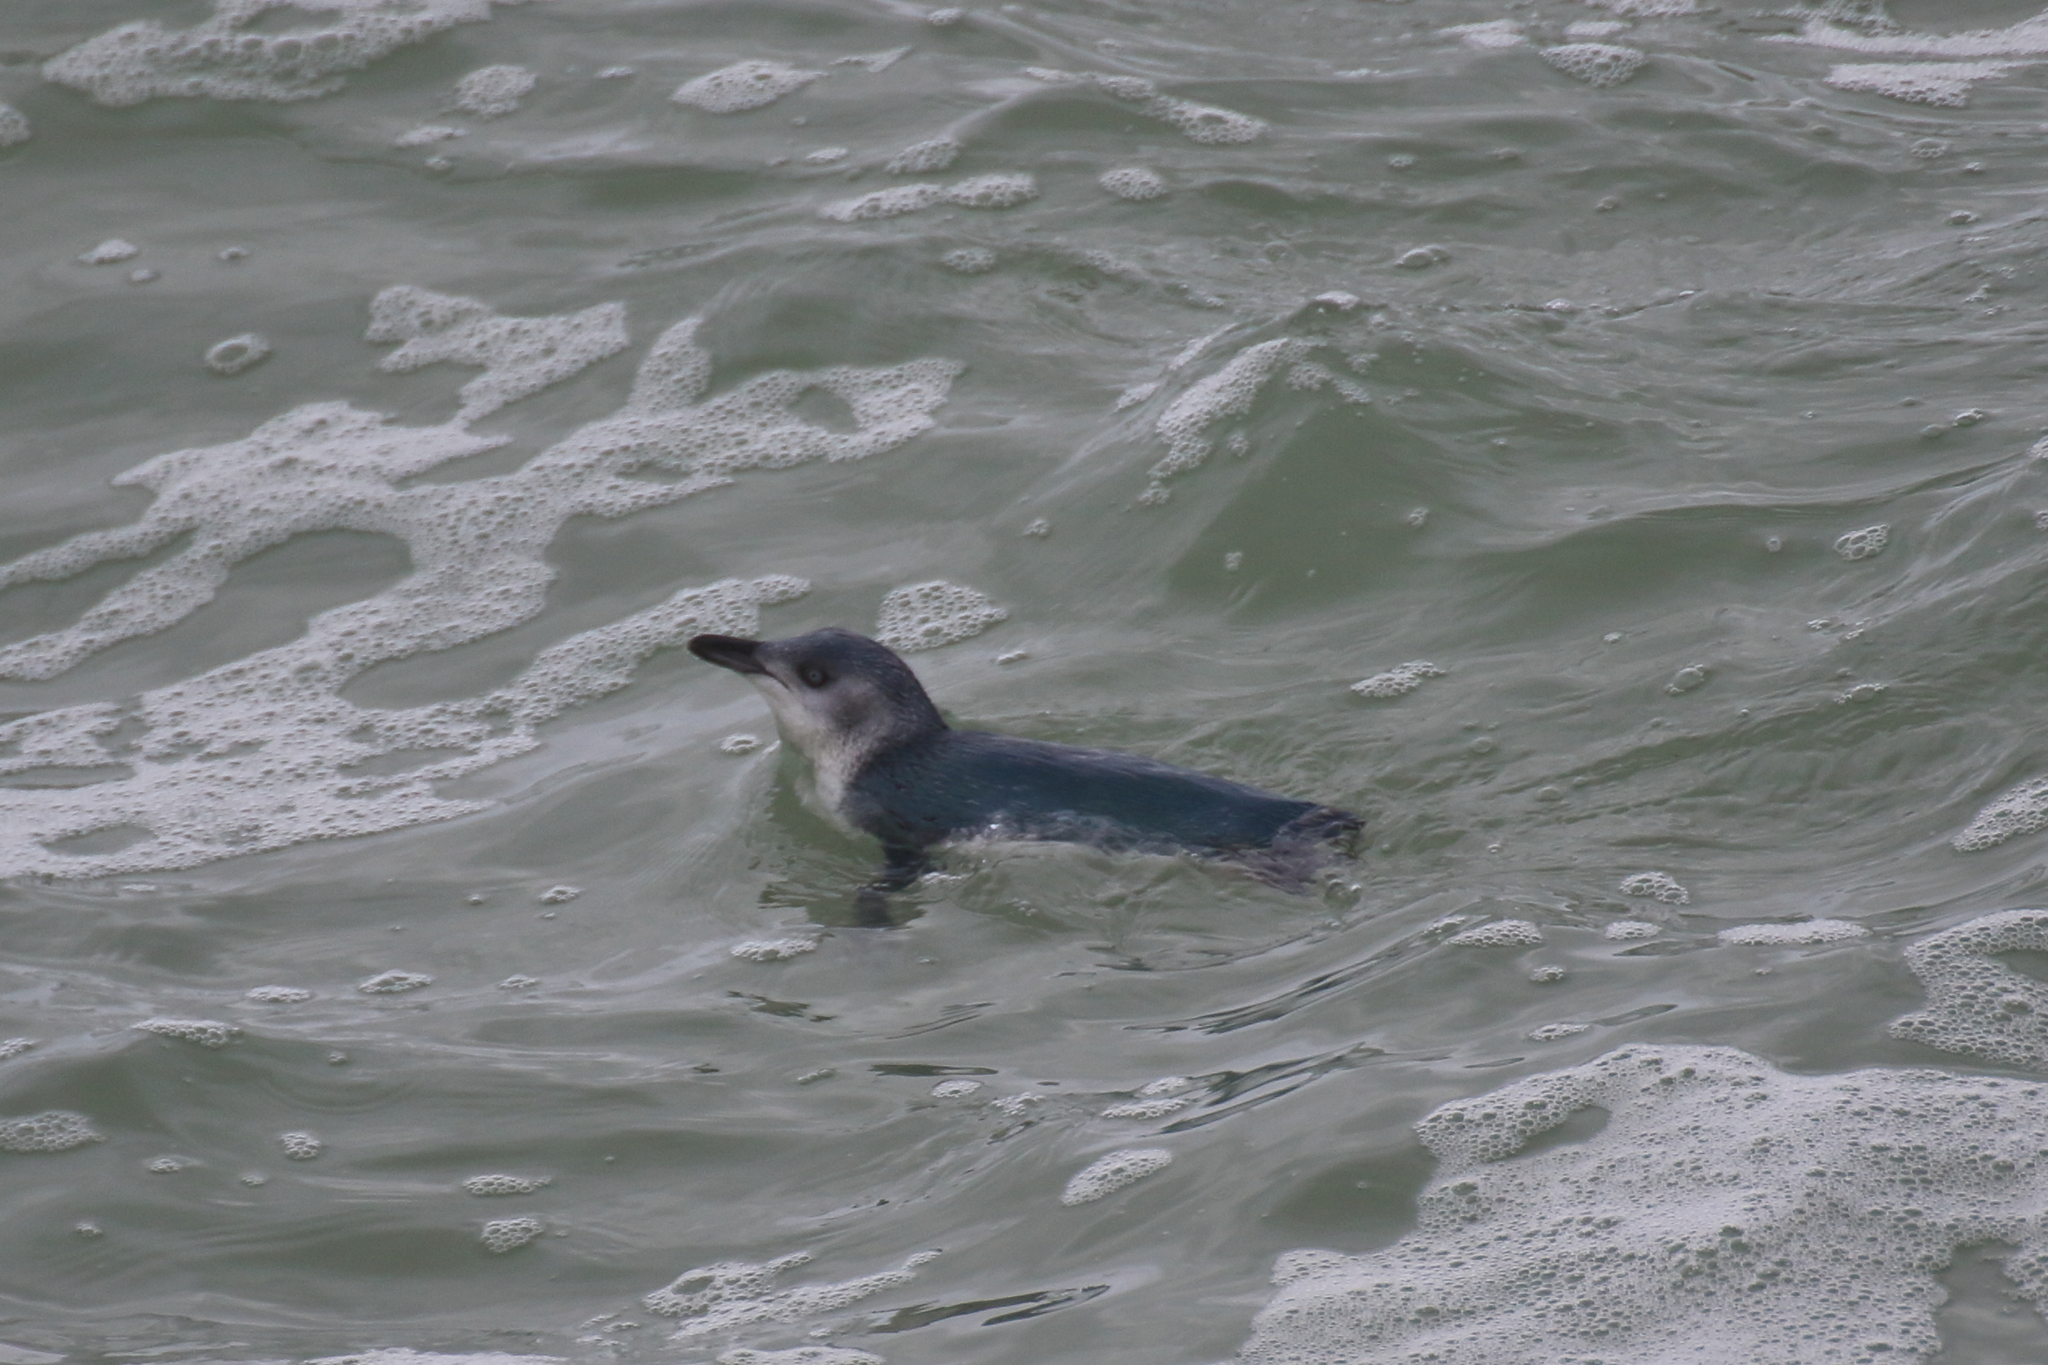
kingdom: Animalia
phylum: Chordata
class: Aves
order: Sphenisciformes
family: Spheniscidae
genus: Eudyptula
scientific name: Eudyptula minor
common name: Little penguin
